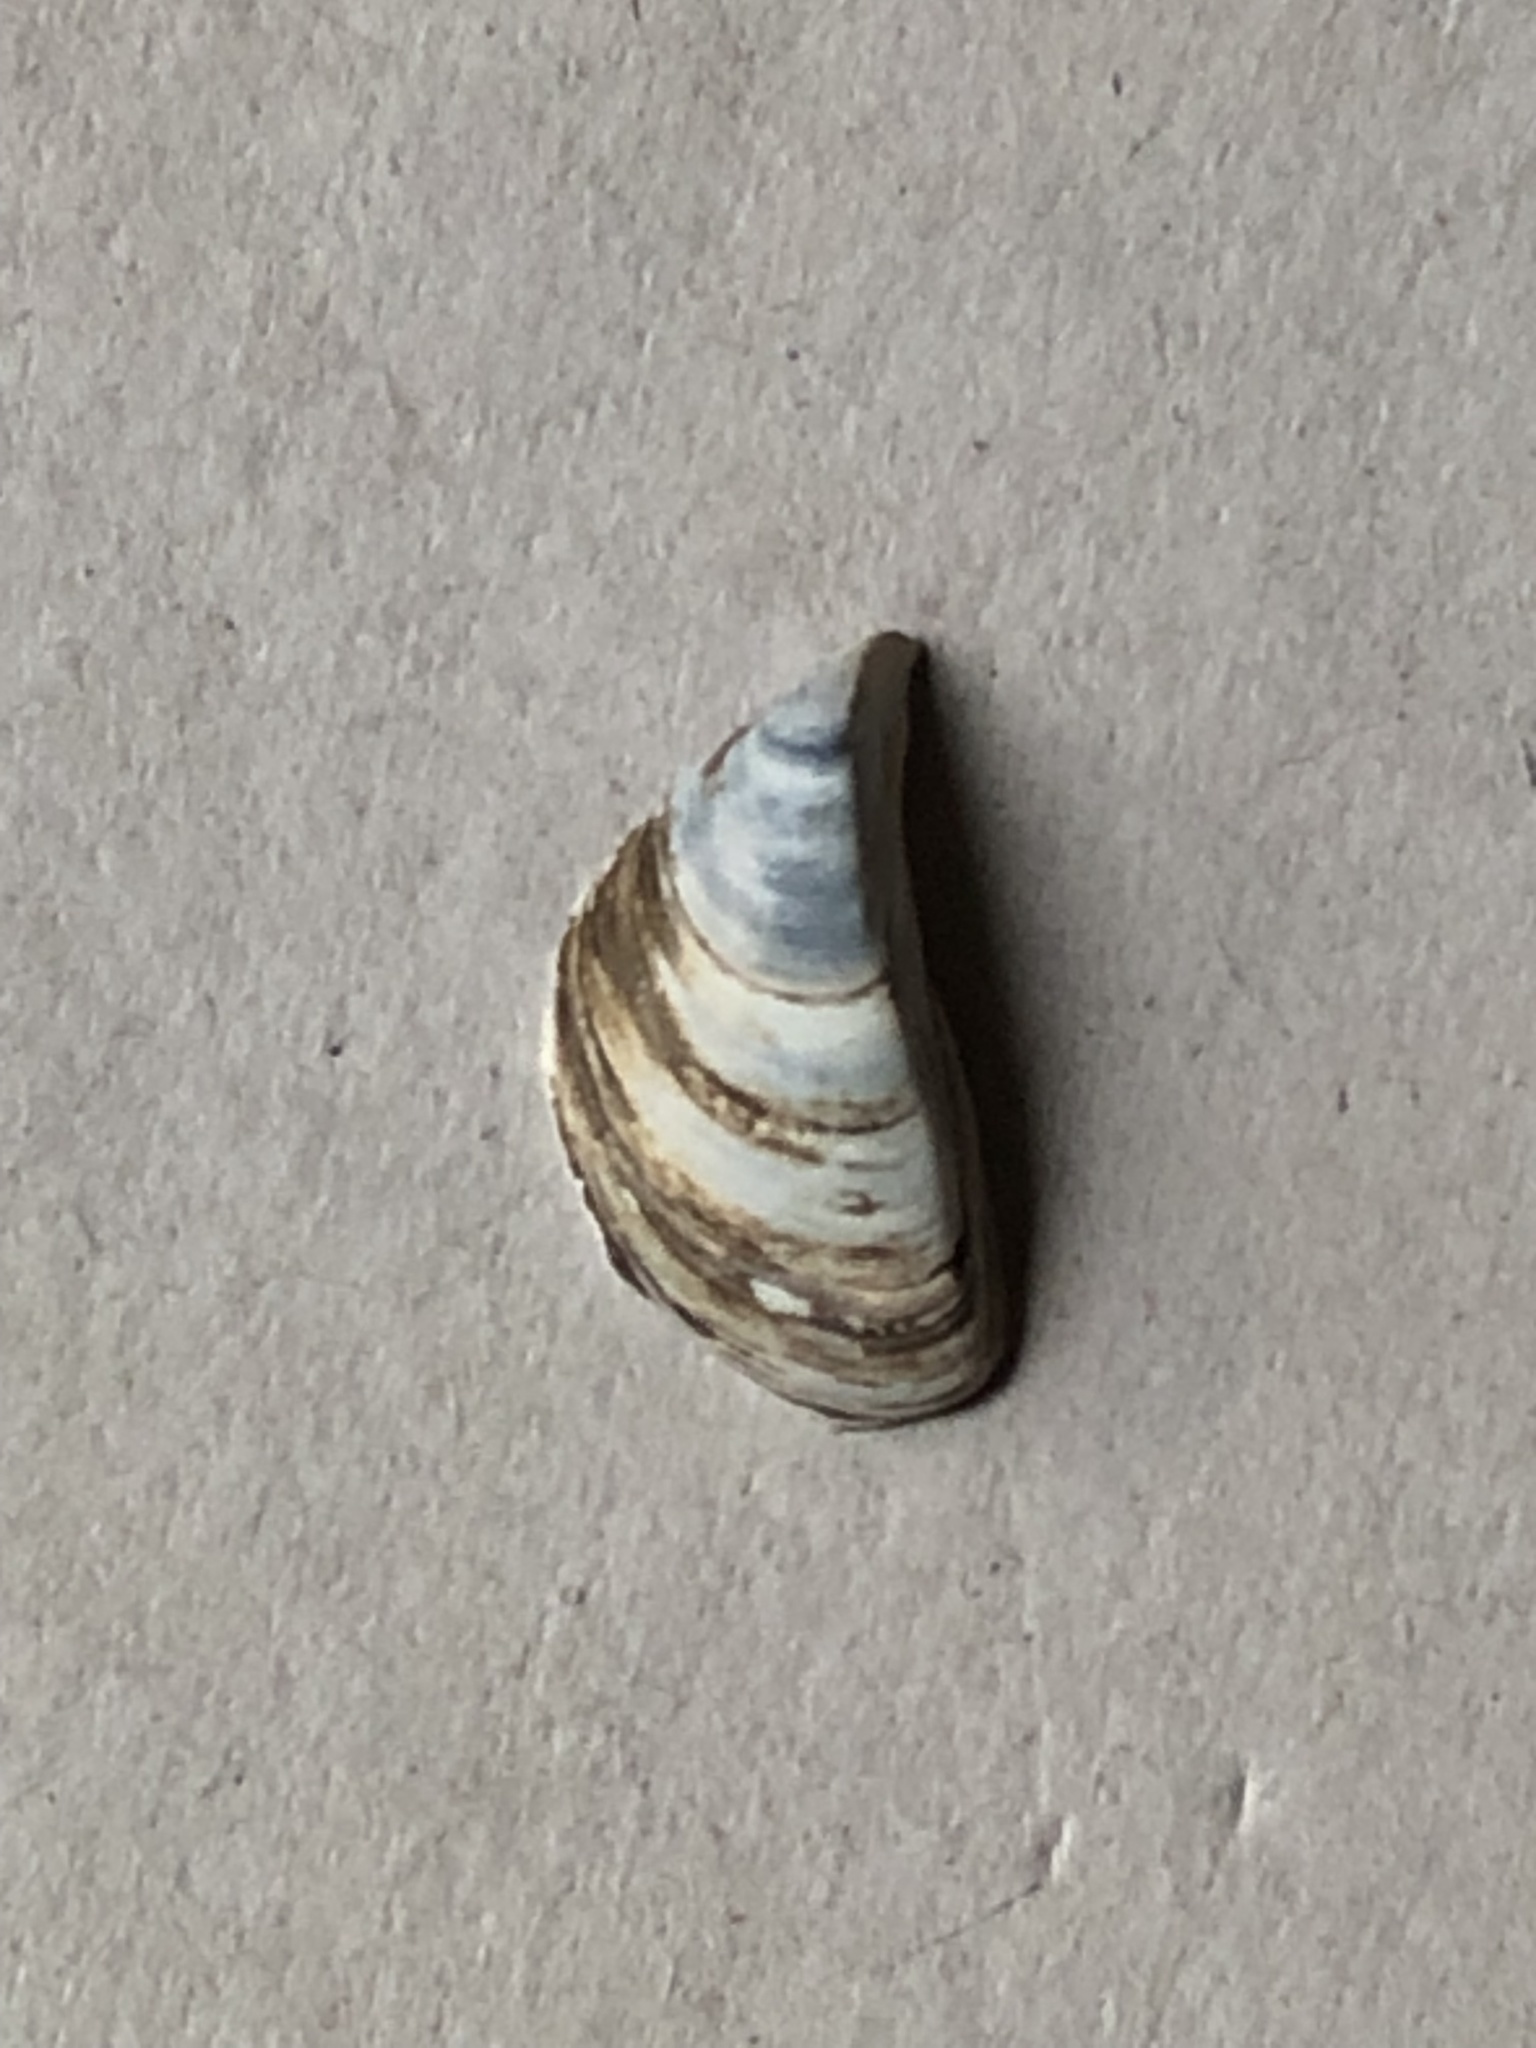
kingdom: Animalia
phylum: Mollusca
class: Bivalvia
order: Myida
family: Dreissenidae
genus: Dreissena
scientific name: Dreissena polymorpha
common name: Zebra mussel
